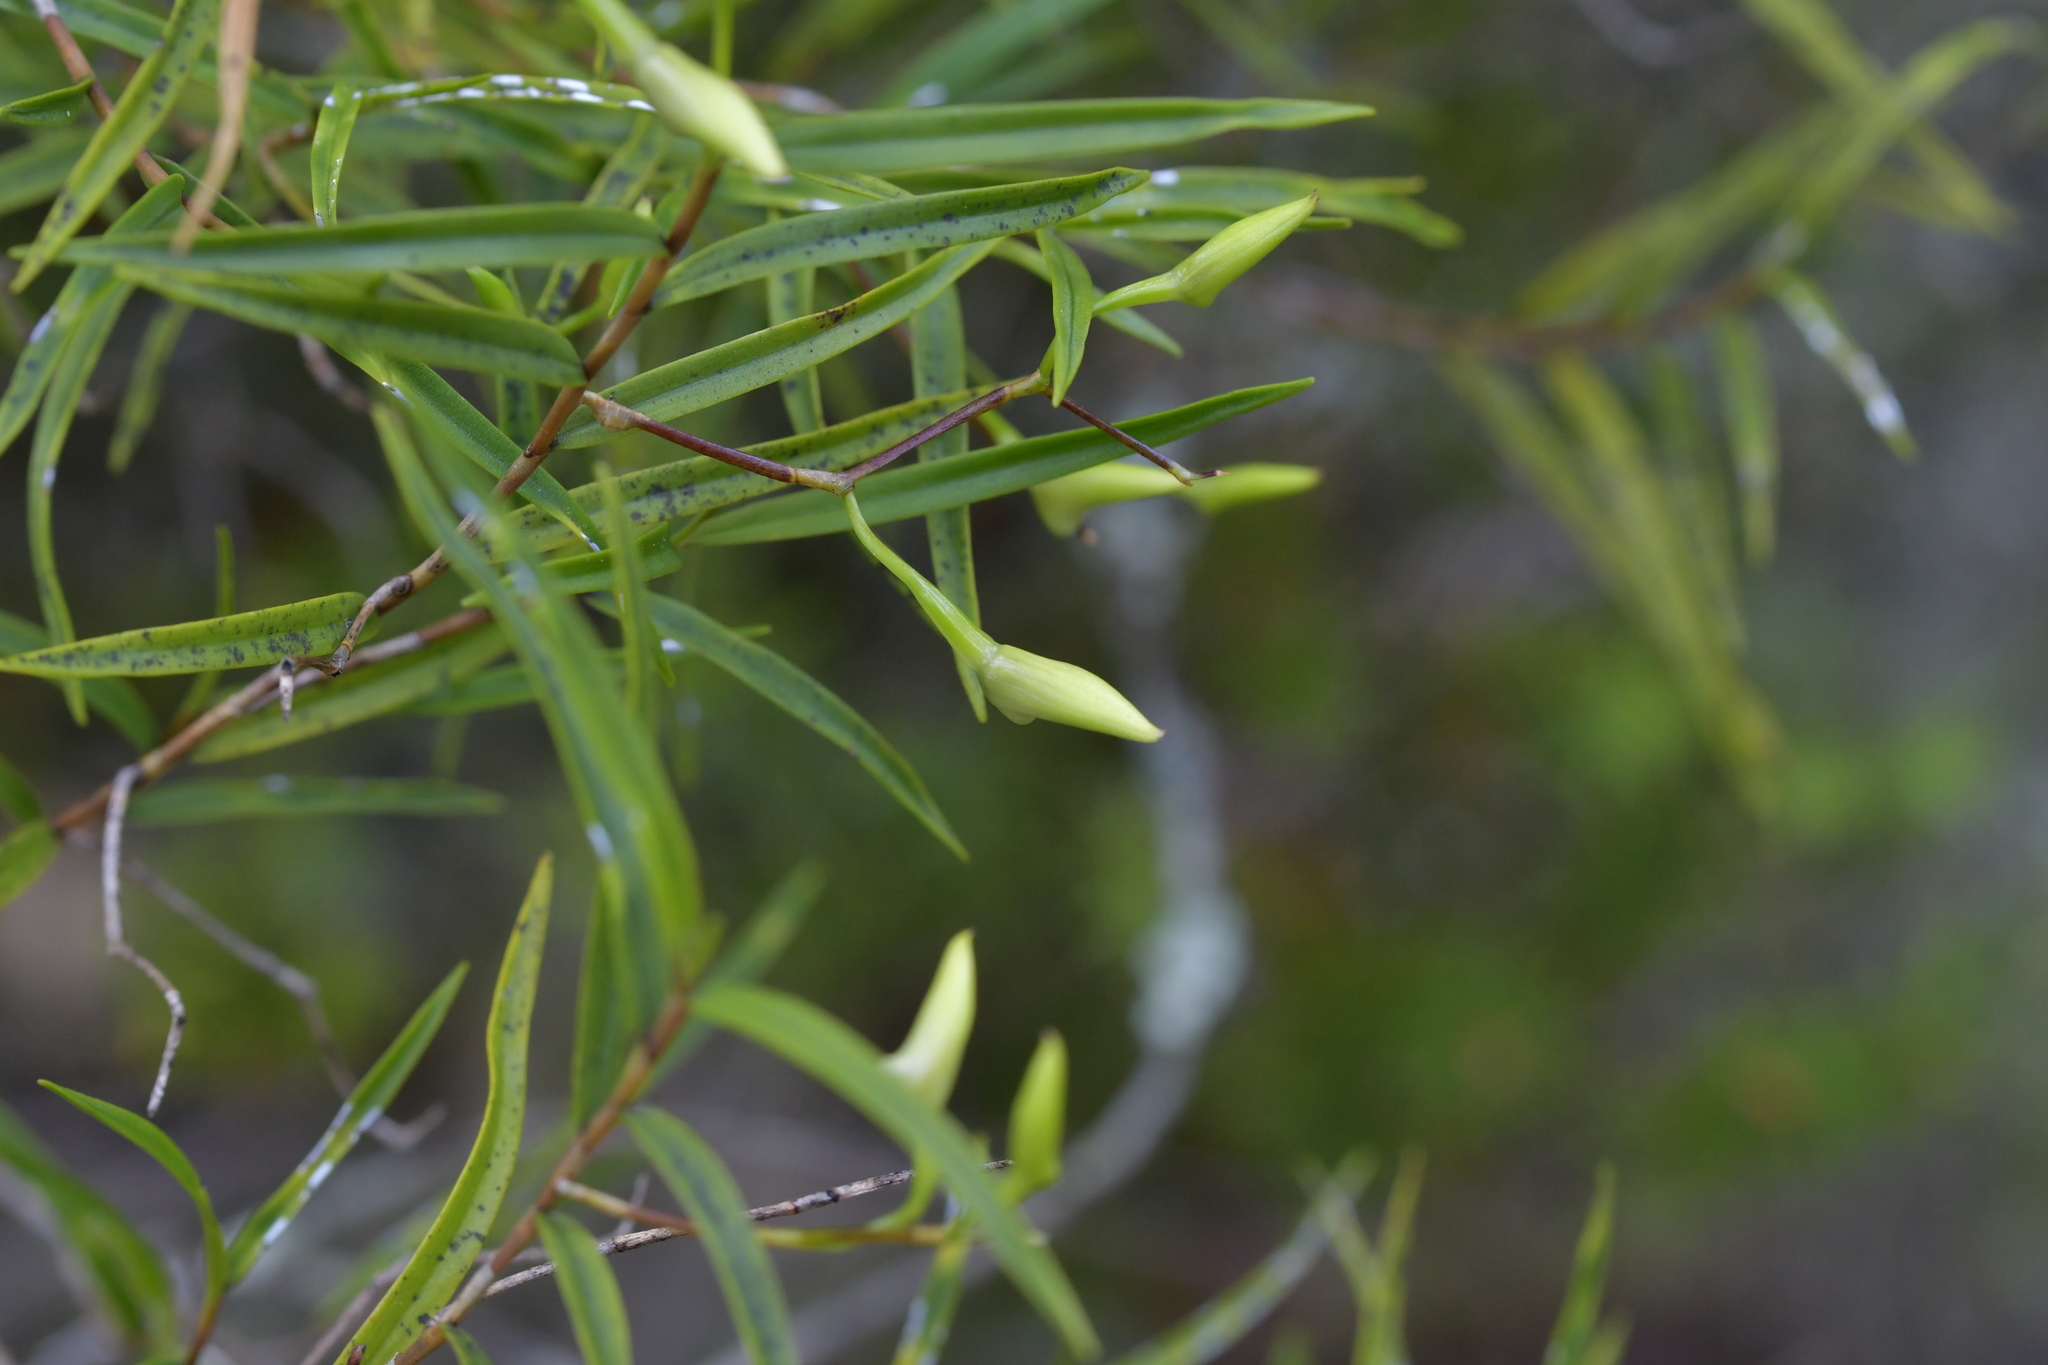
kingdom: Plantae
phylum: Tracheophyta
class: Liliopsida
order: Asparagales
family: Orchidaceae
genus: Dendrobium
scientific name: Dendrobium cunninghamii
